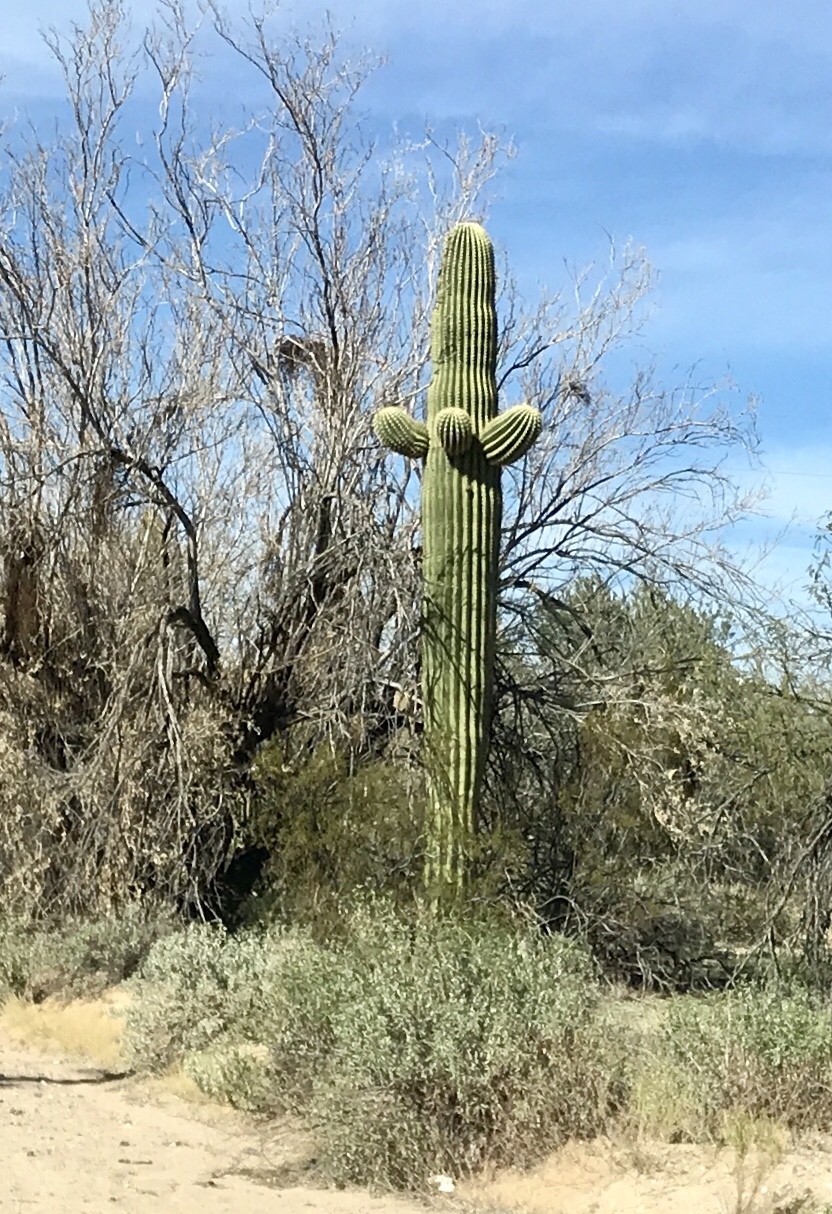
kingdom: Plantae
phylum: Tracheophyta
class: Magnoliopsida
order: Caryophyllales
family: Cactaceae
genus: Carnegiea
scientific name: Carnegiea gigantea
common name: Saguaro
